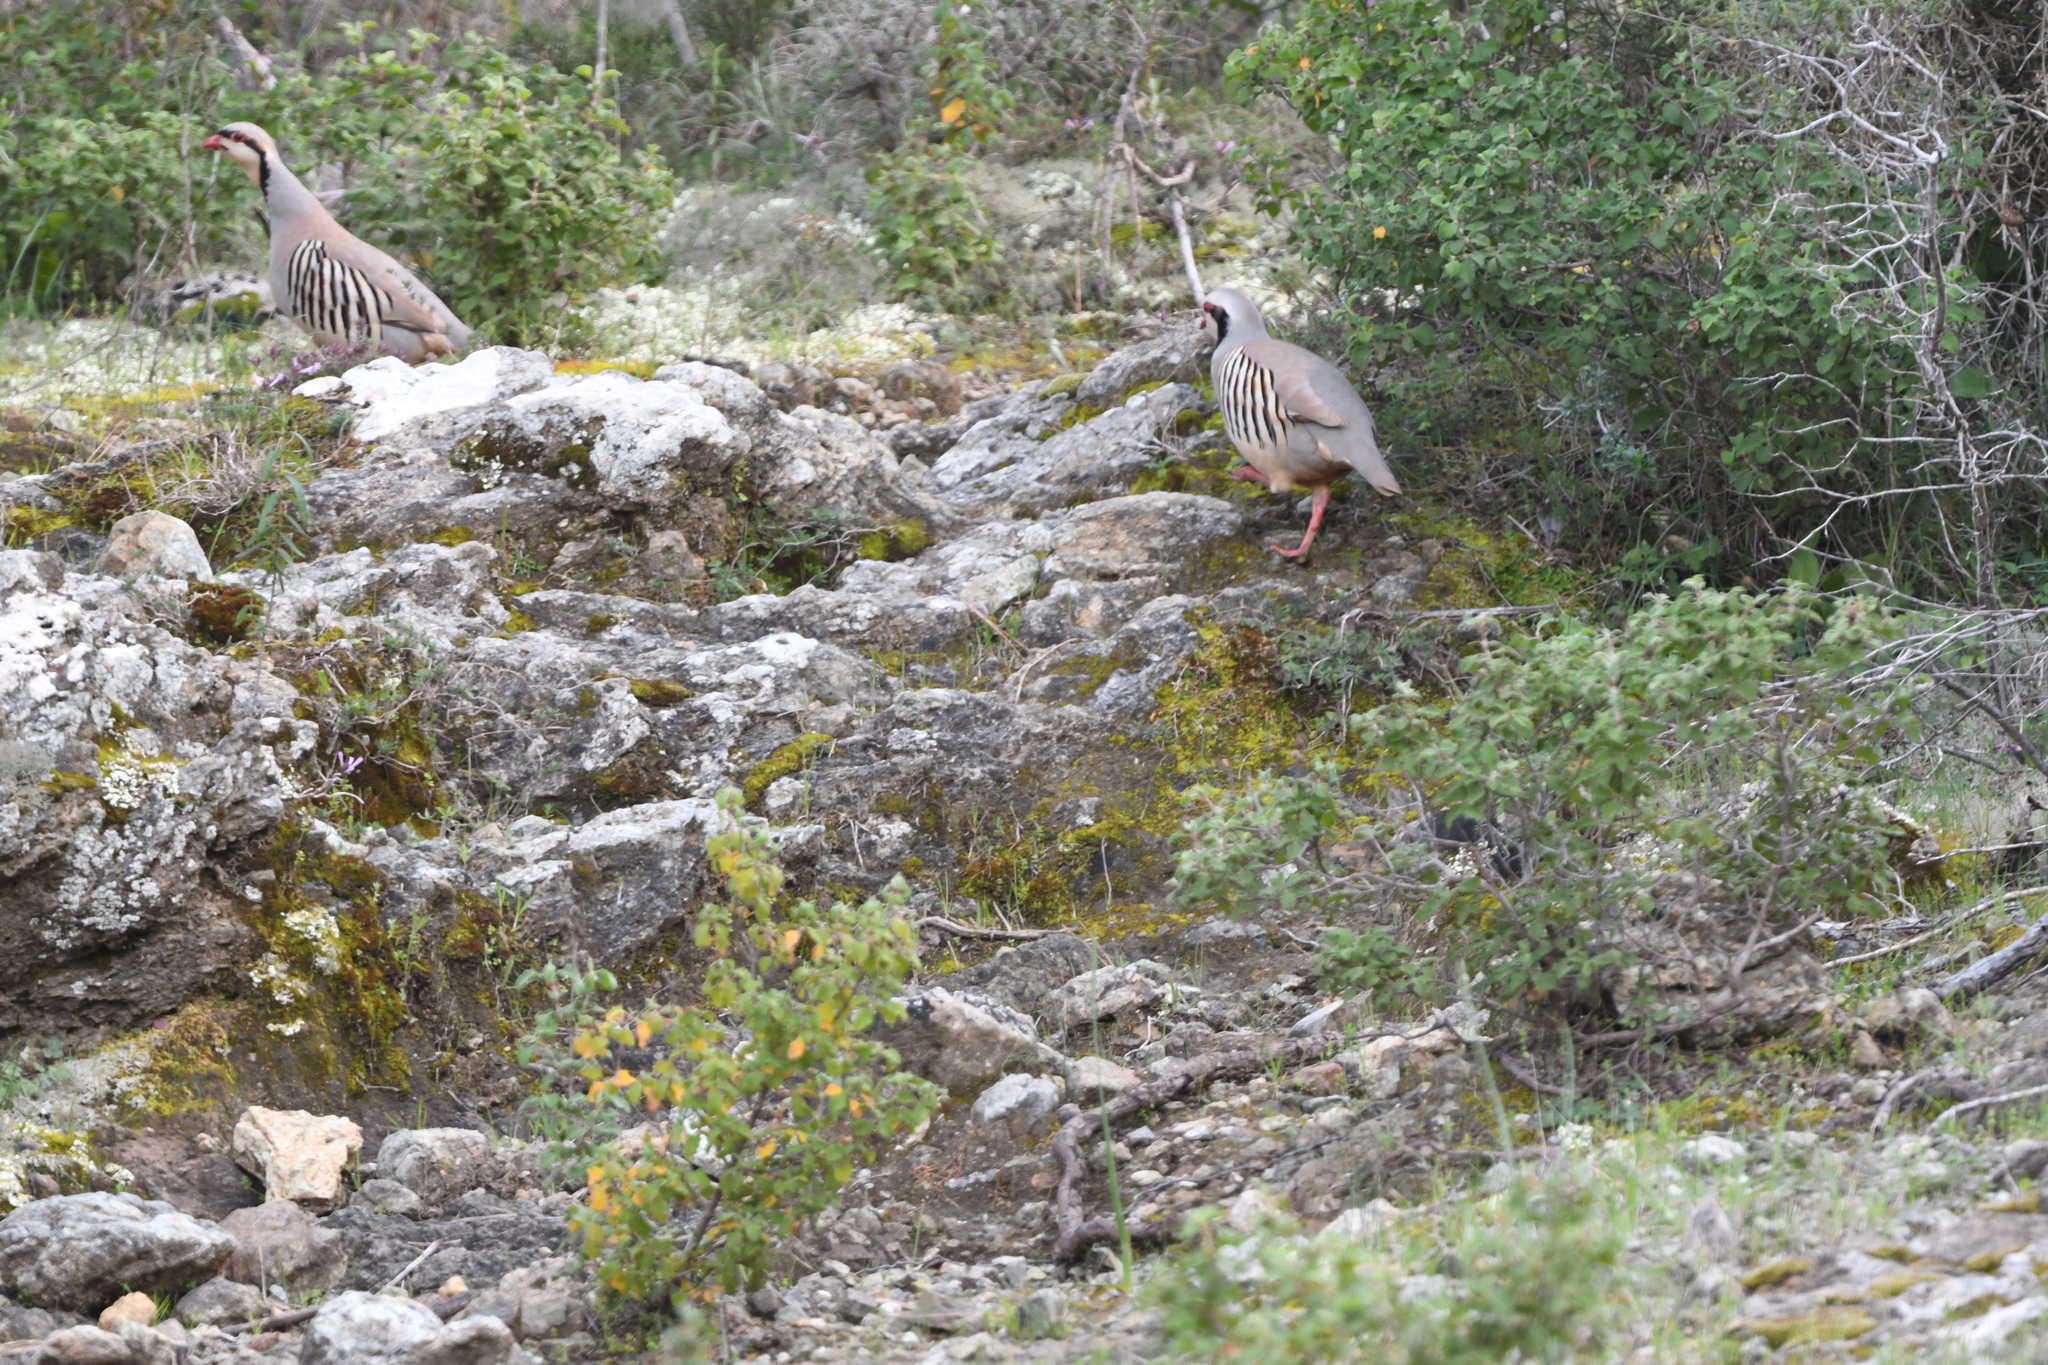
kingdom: Animalia
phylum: Chordata
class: Aves
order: Galliformes
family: Phasianidae
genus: Alectoris
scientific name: Alectoris chukar
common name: Chukar
